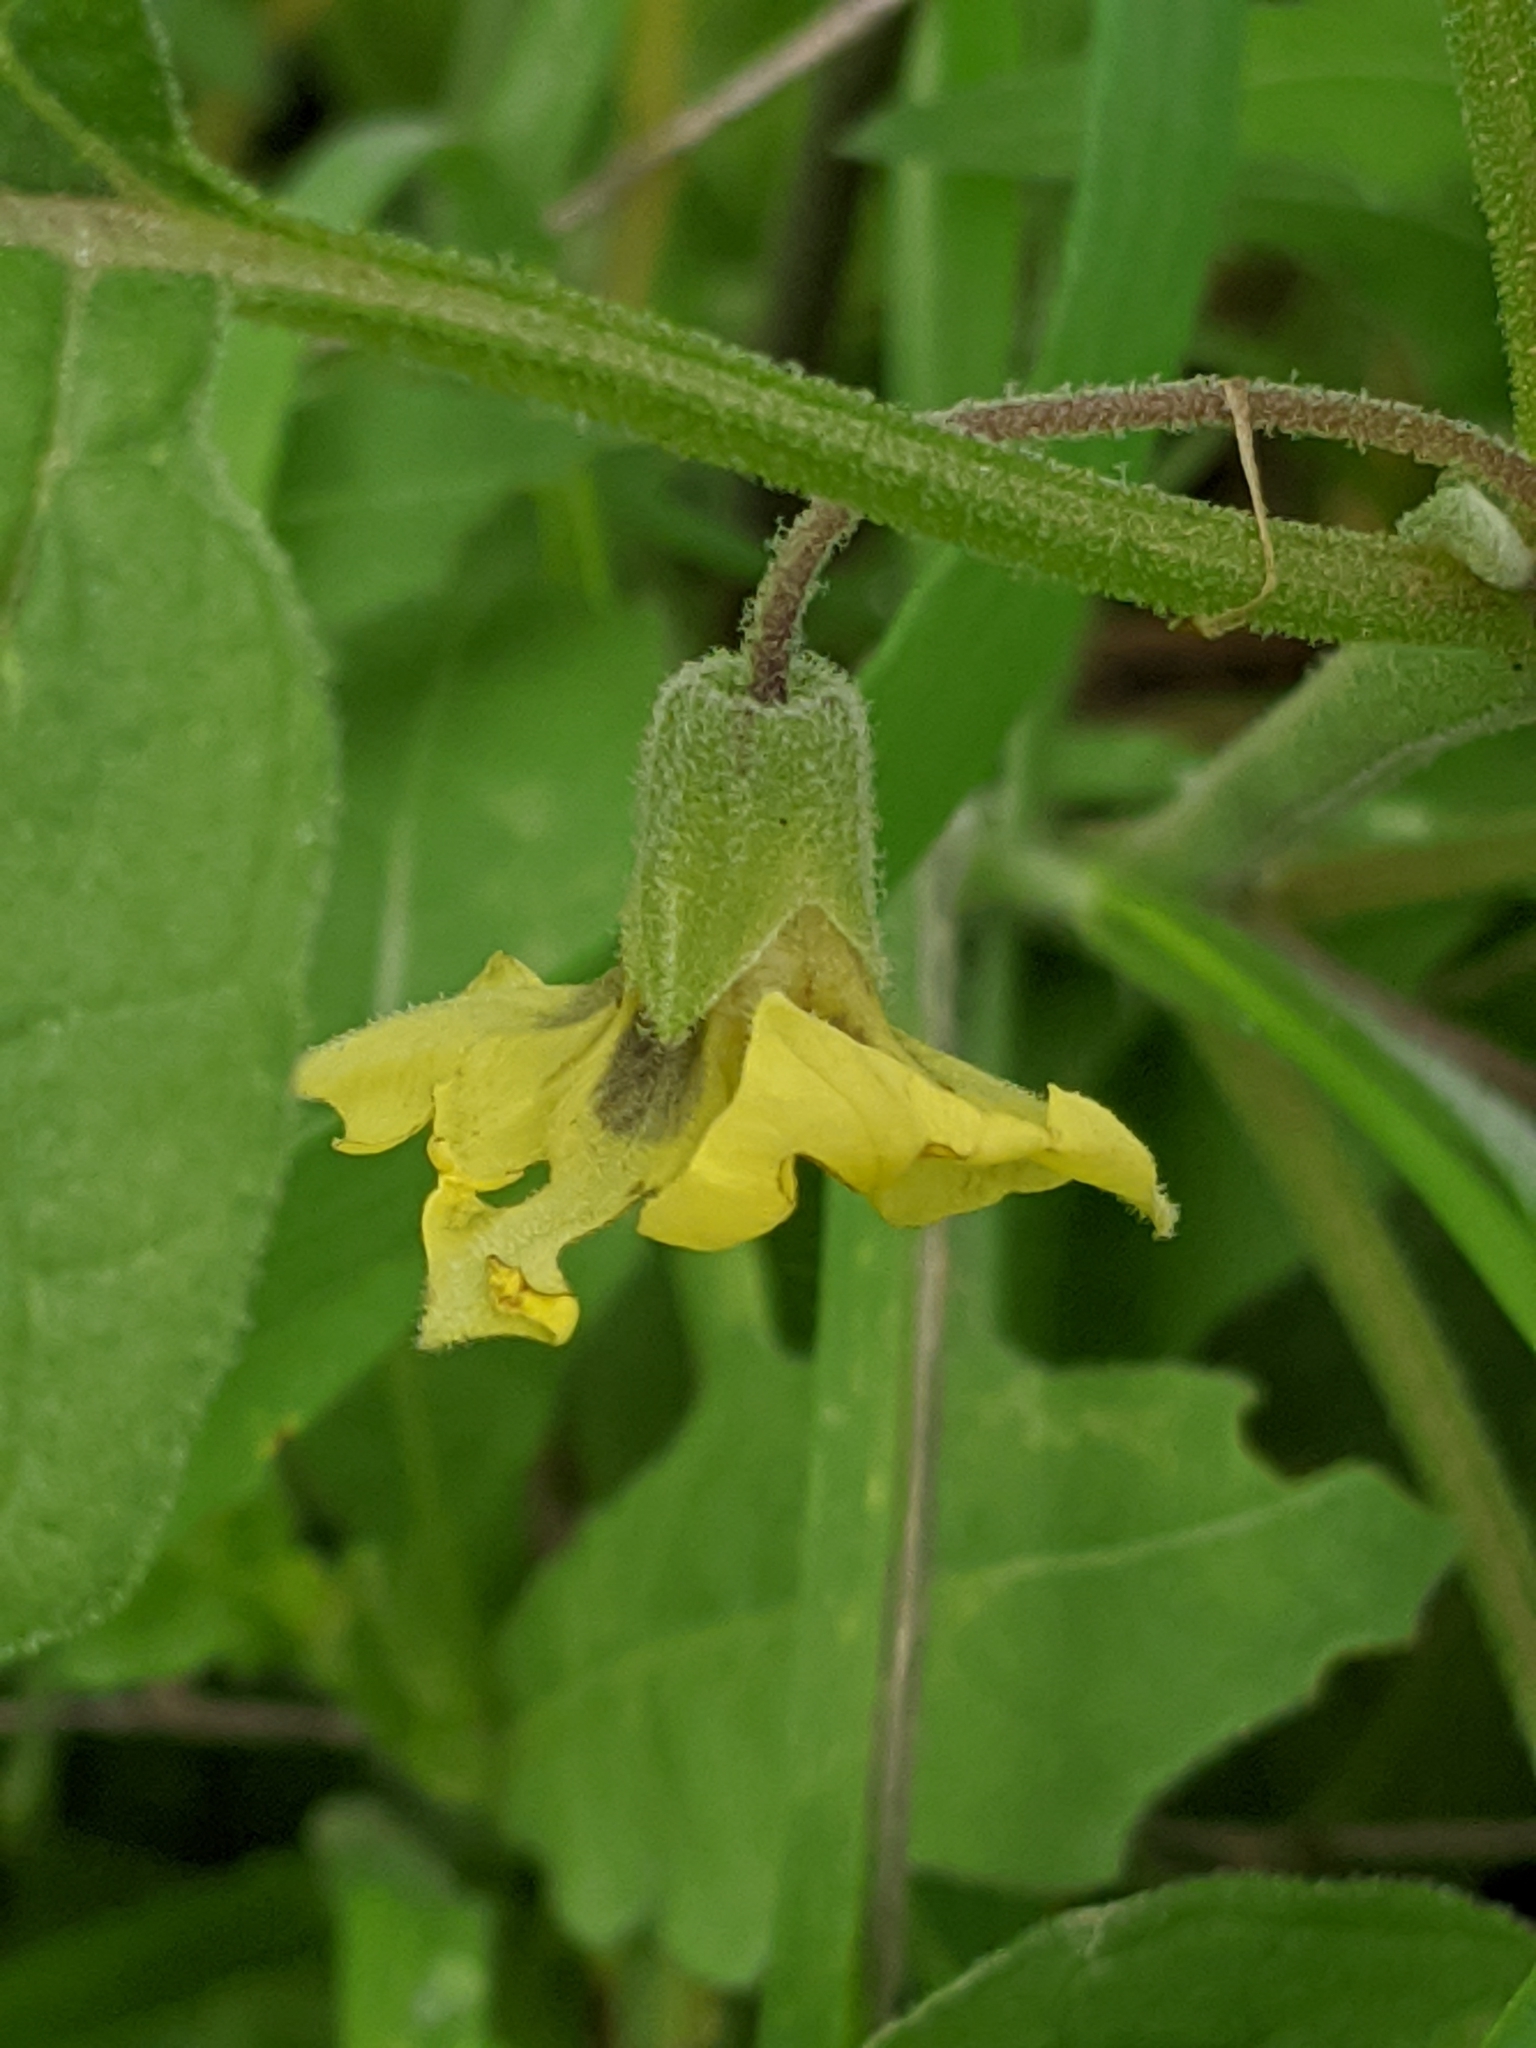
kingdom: Plantae
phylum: Tracheophyta
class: Magnoliopsida
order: Solanales
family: Solanaceae
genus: Physalis
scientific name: Physalis mollis
